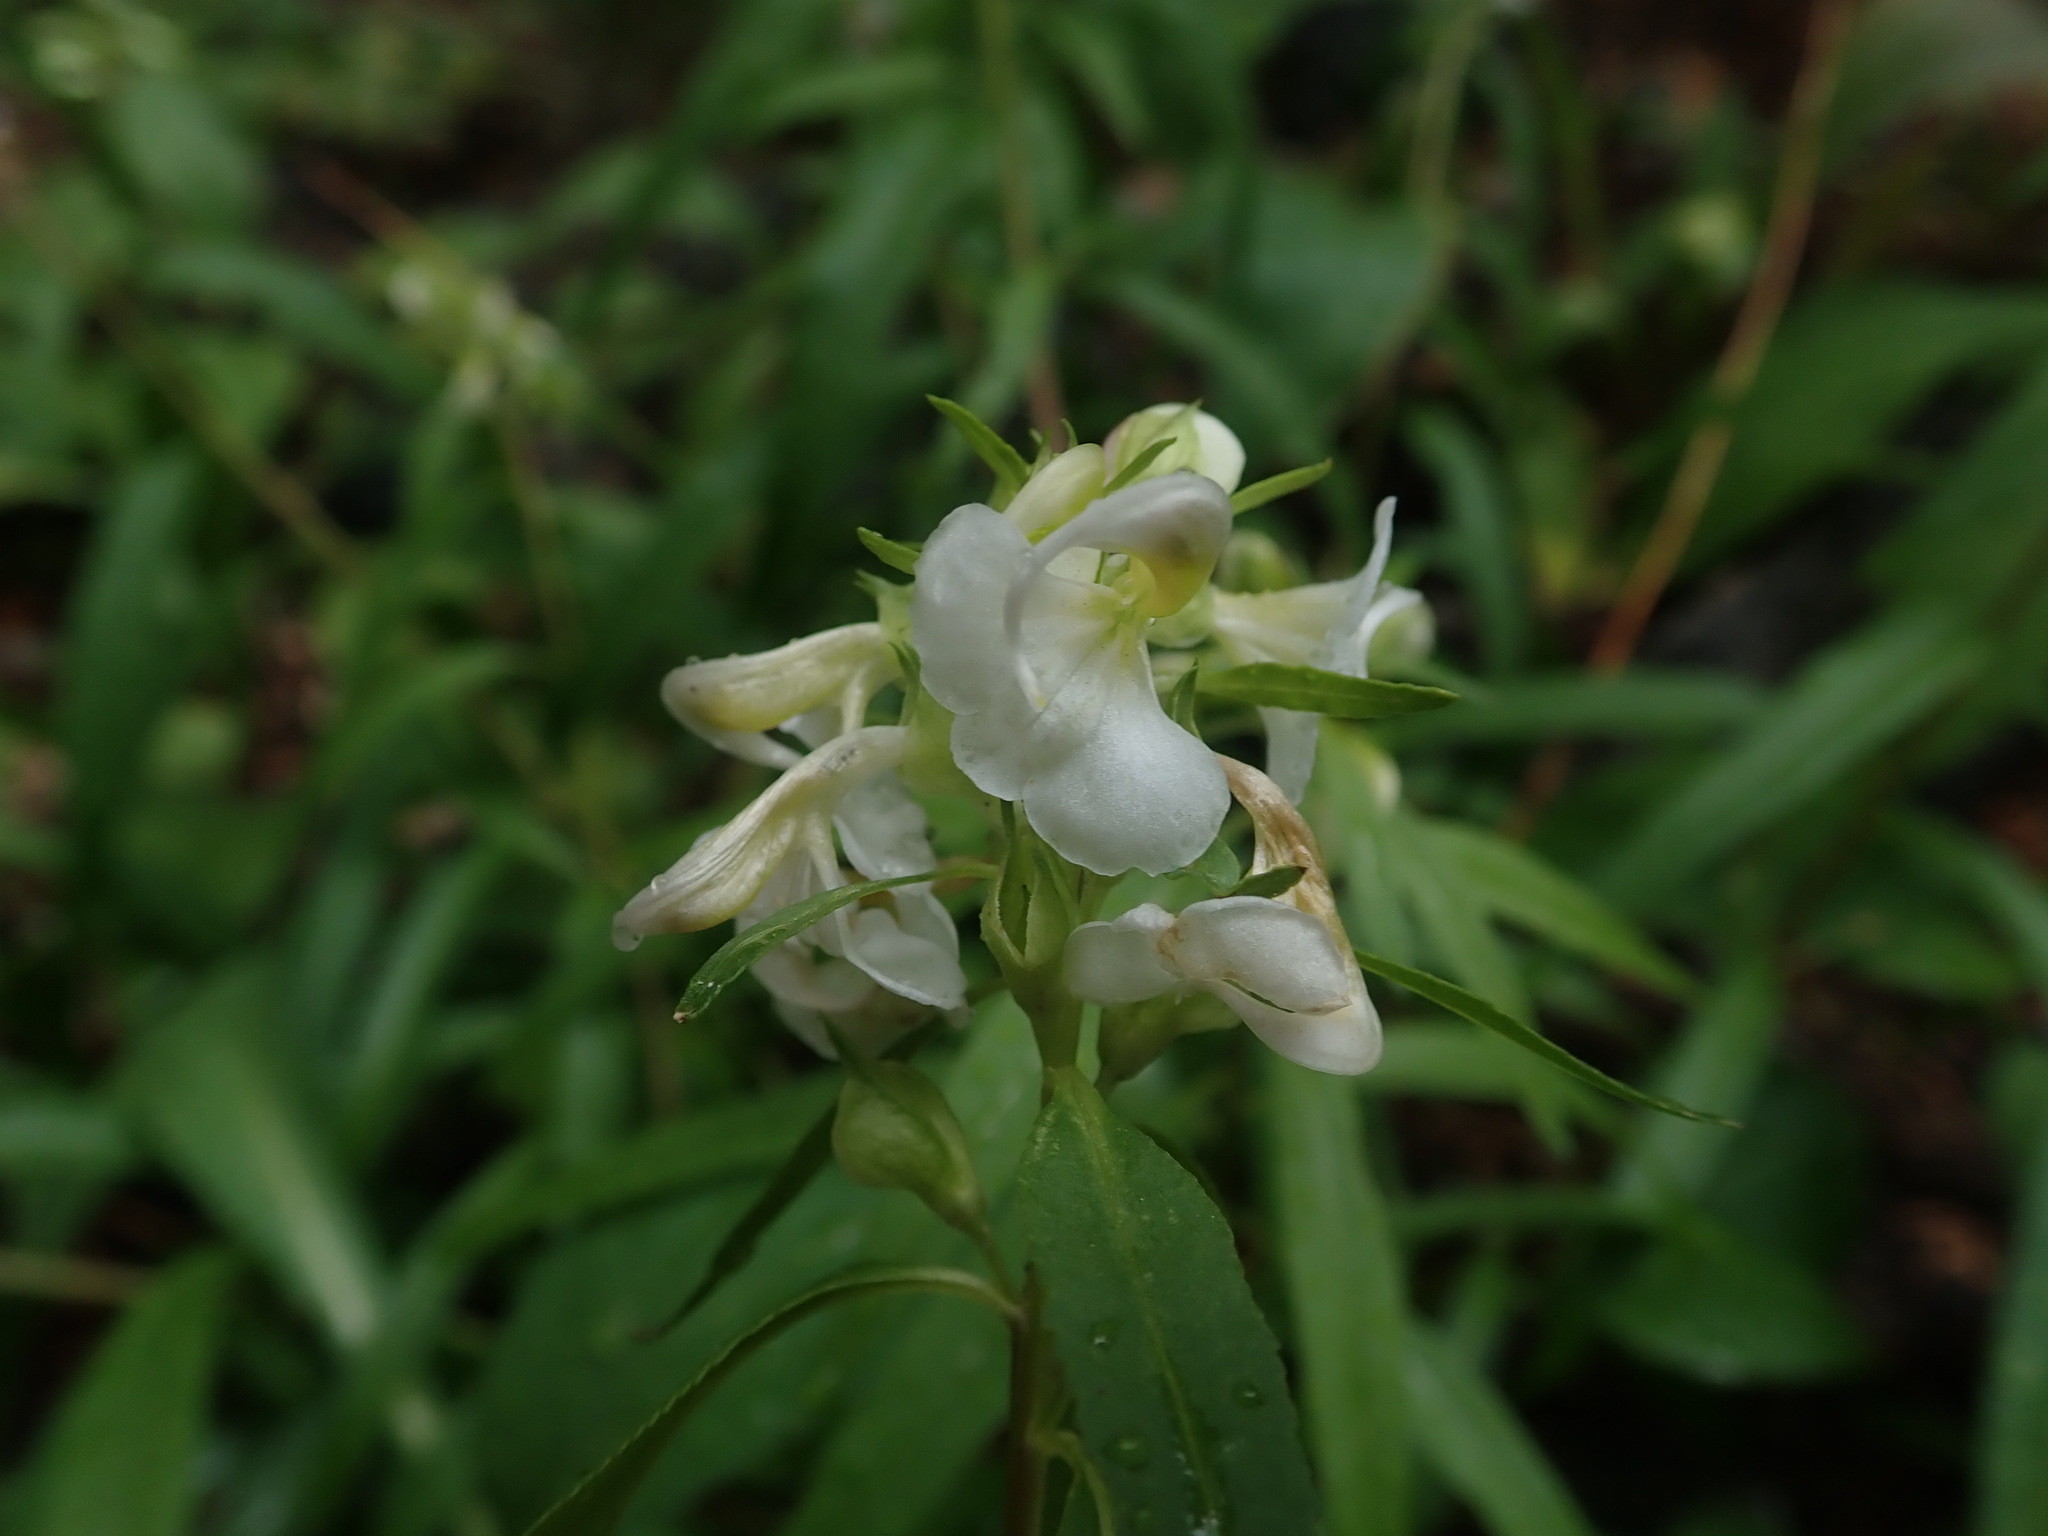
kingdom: Plantae
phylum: Tracheophyta
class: Magnoliopsida
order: Lamiales
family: Orobanchaceae
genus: Pedicularis
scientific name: Pedicularis racemosa
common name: Leafy lousewort
